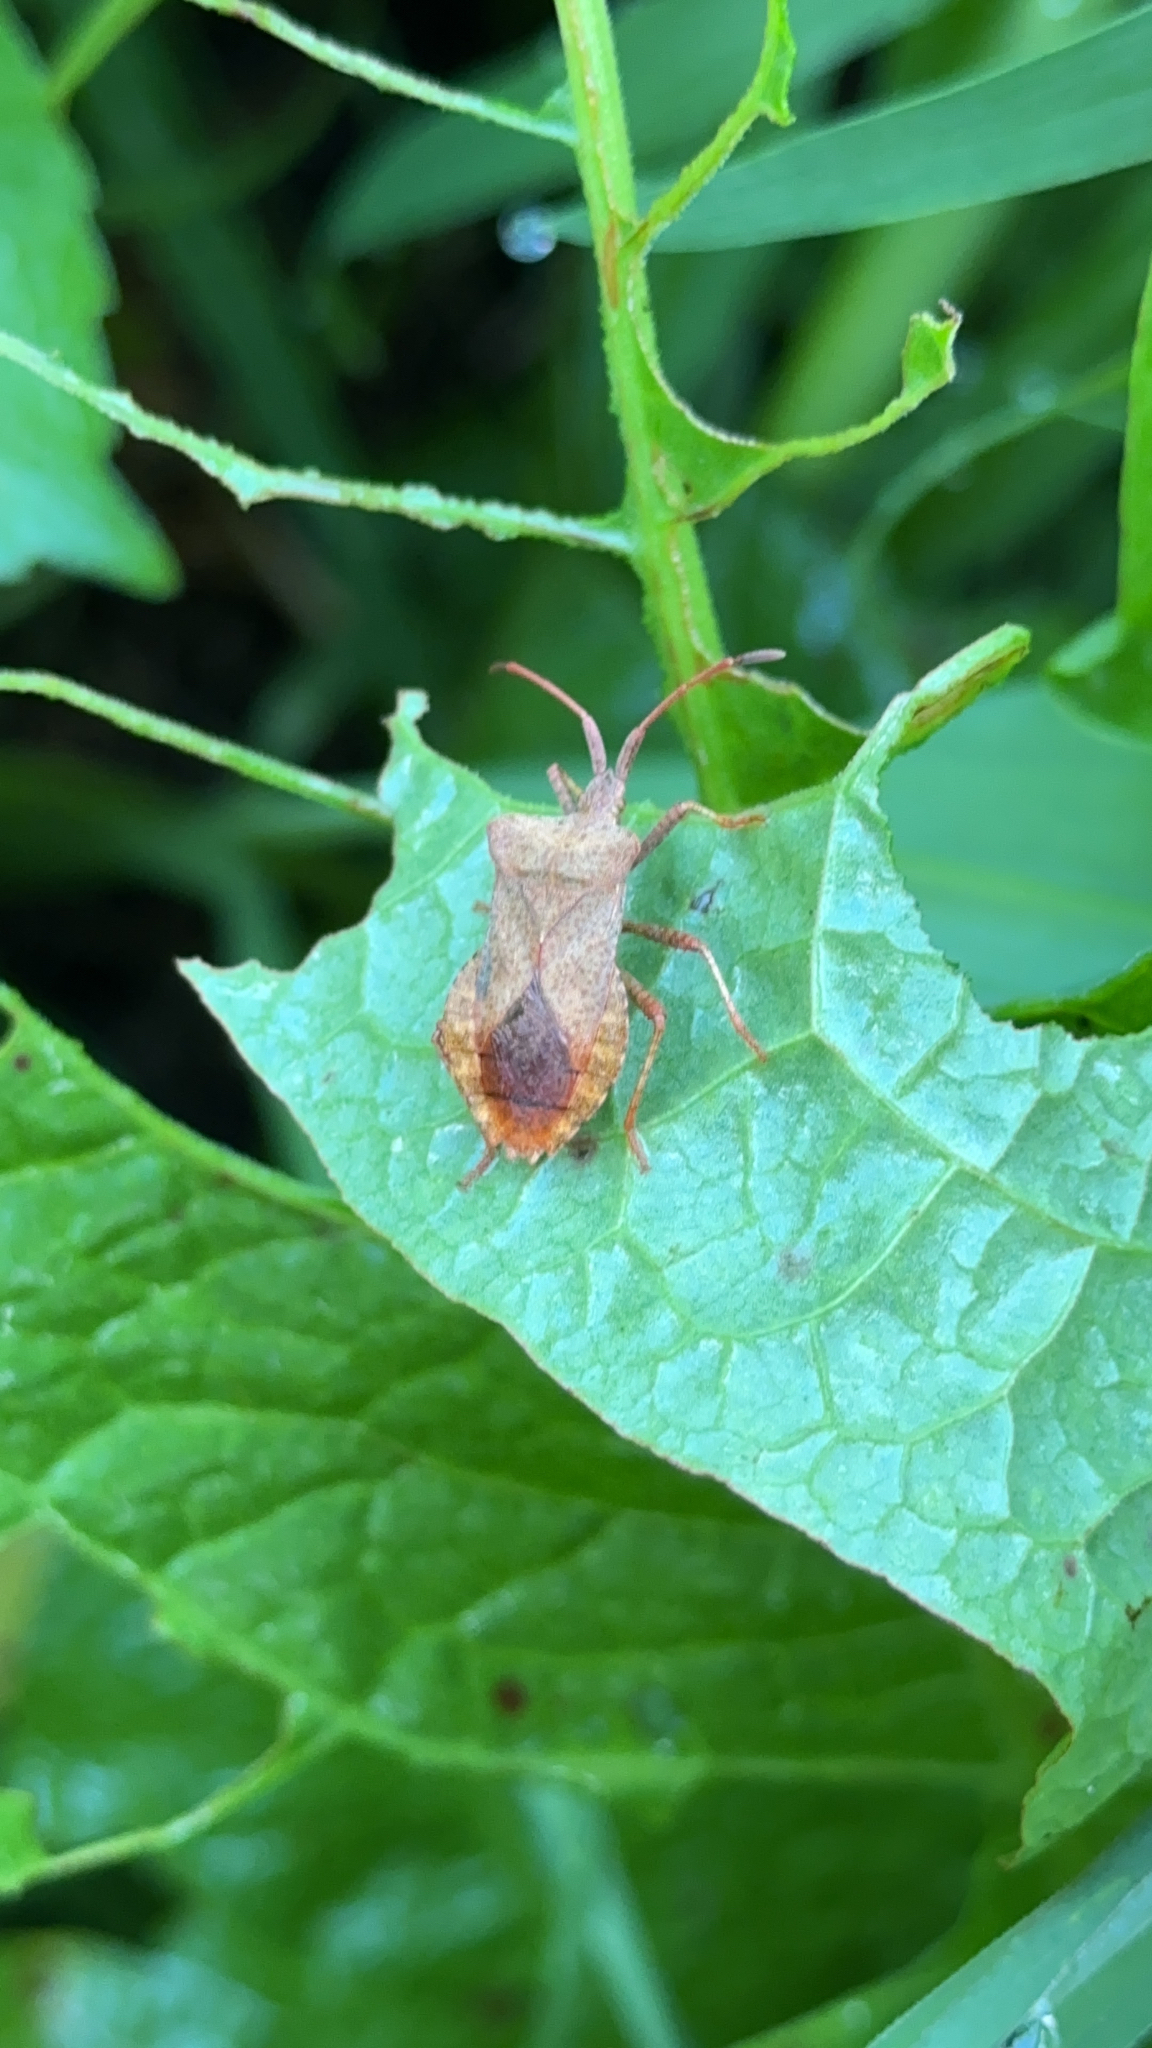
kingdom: Animalia
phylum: Arthropoda
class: Insecta
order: Hemiptera
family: Coreidae
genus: Coreus
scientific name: Coreus marginatus
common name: Dock bug
